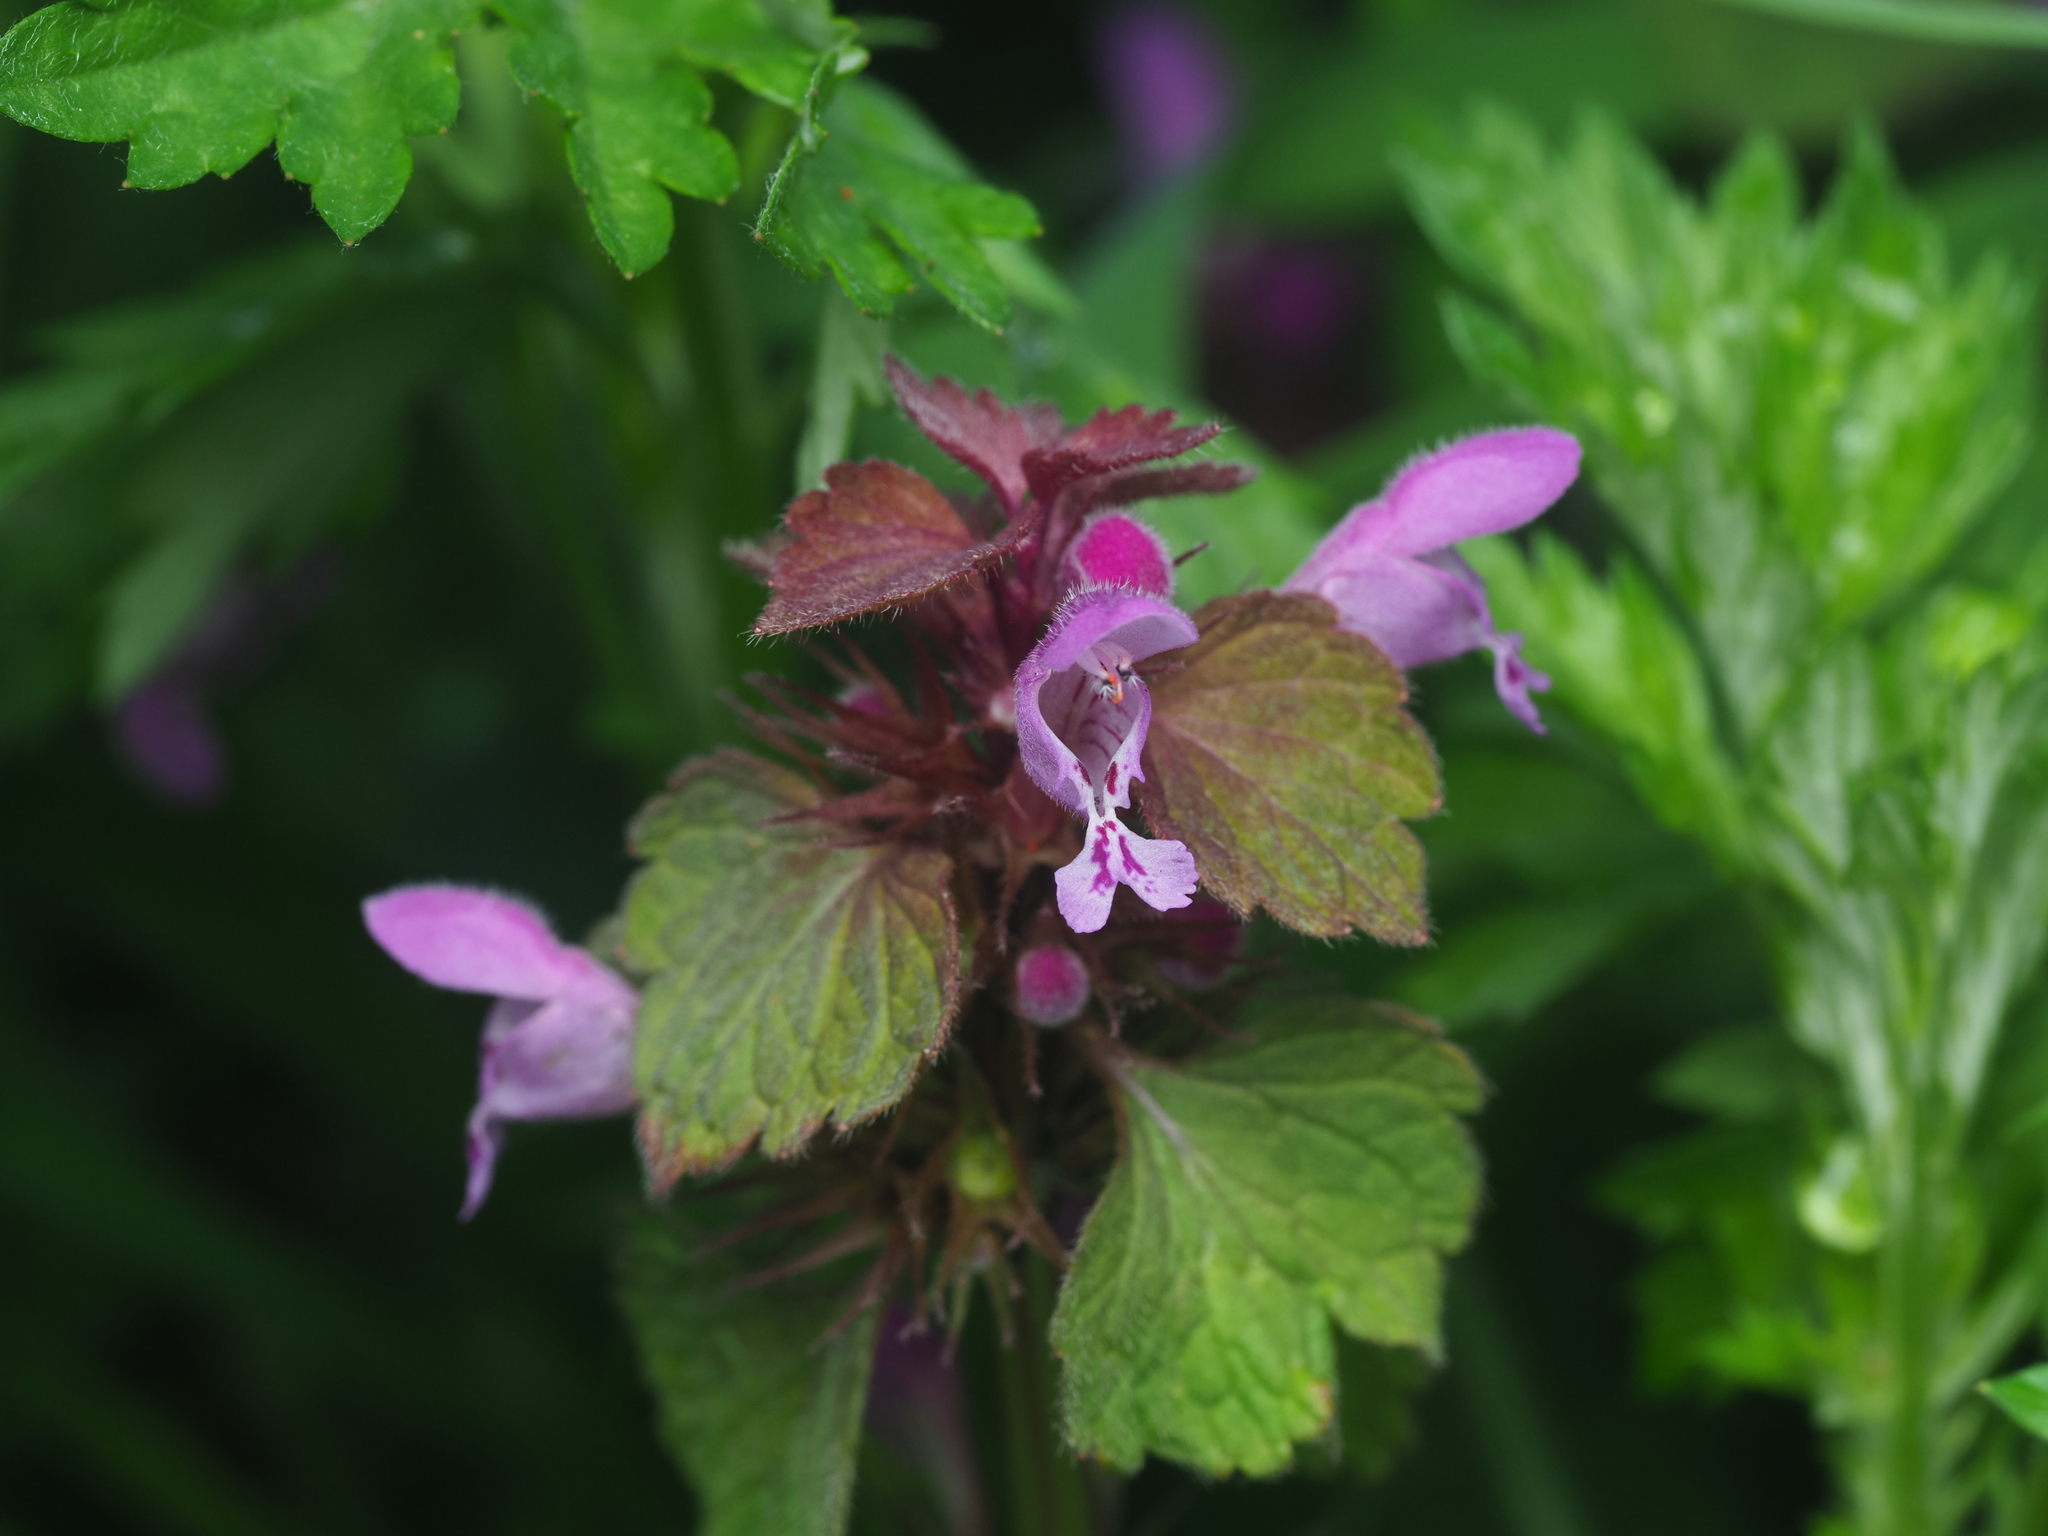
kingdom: Plantae
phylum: Tracheophyta
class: Magnoliopsida
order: Lamiales
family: Lamiaceae
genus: Lamium
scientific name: Lamium purpureum
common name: Red dead-nettle
